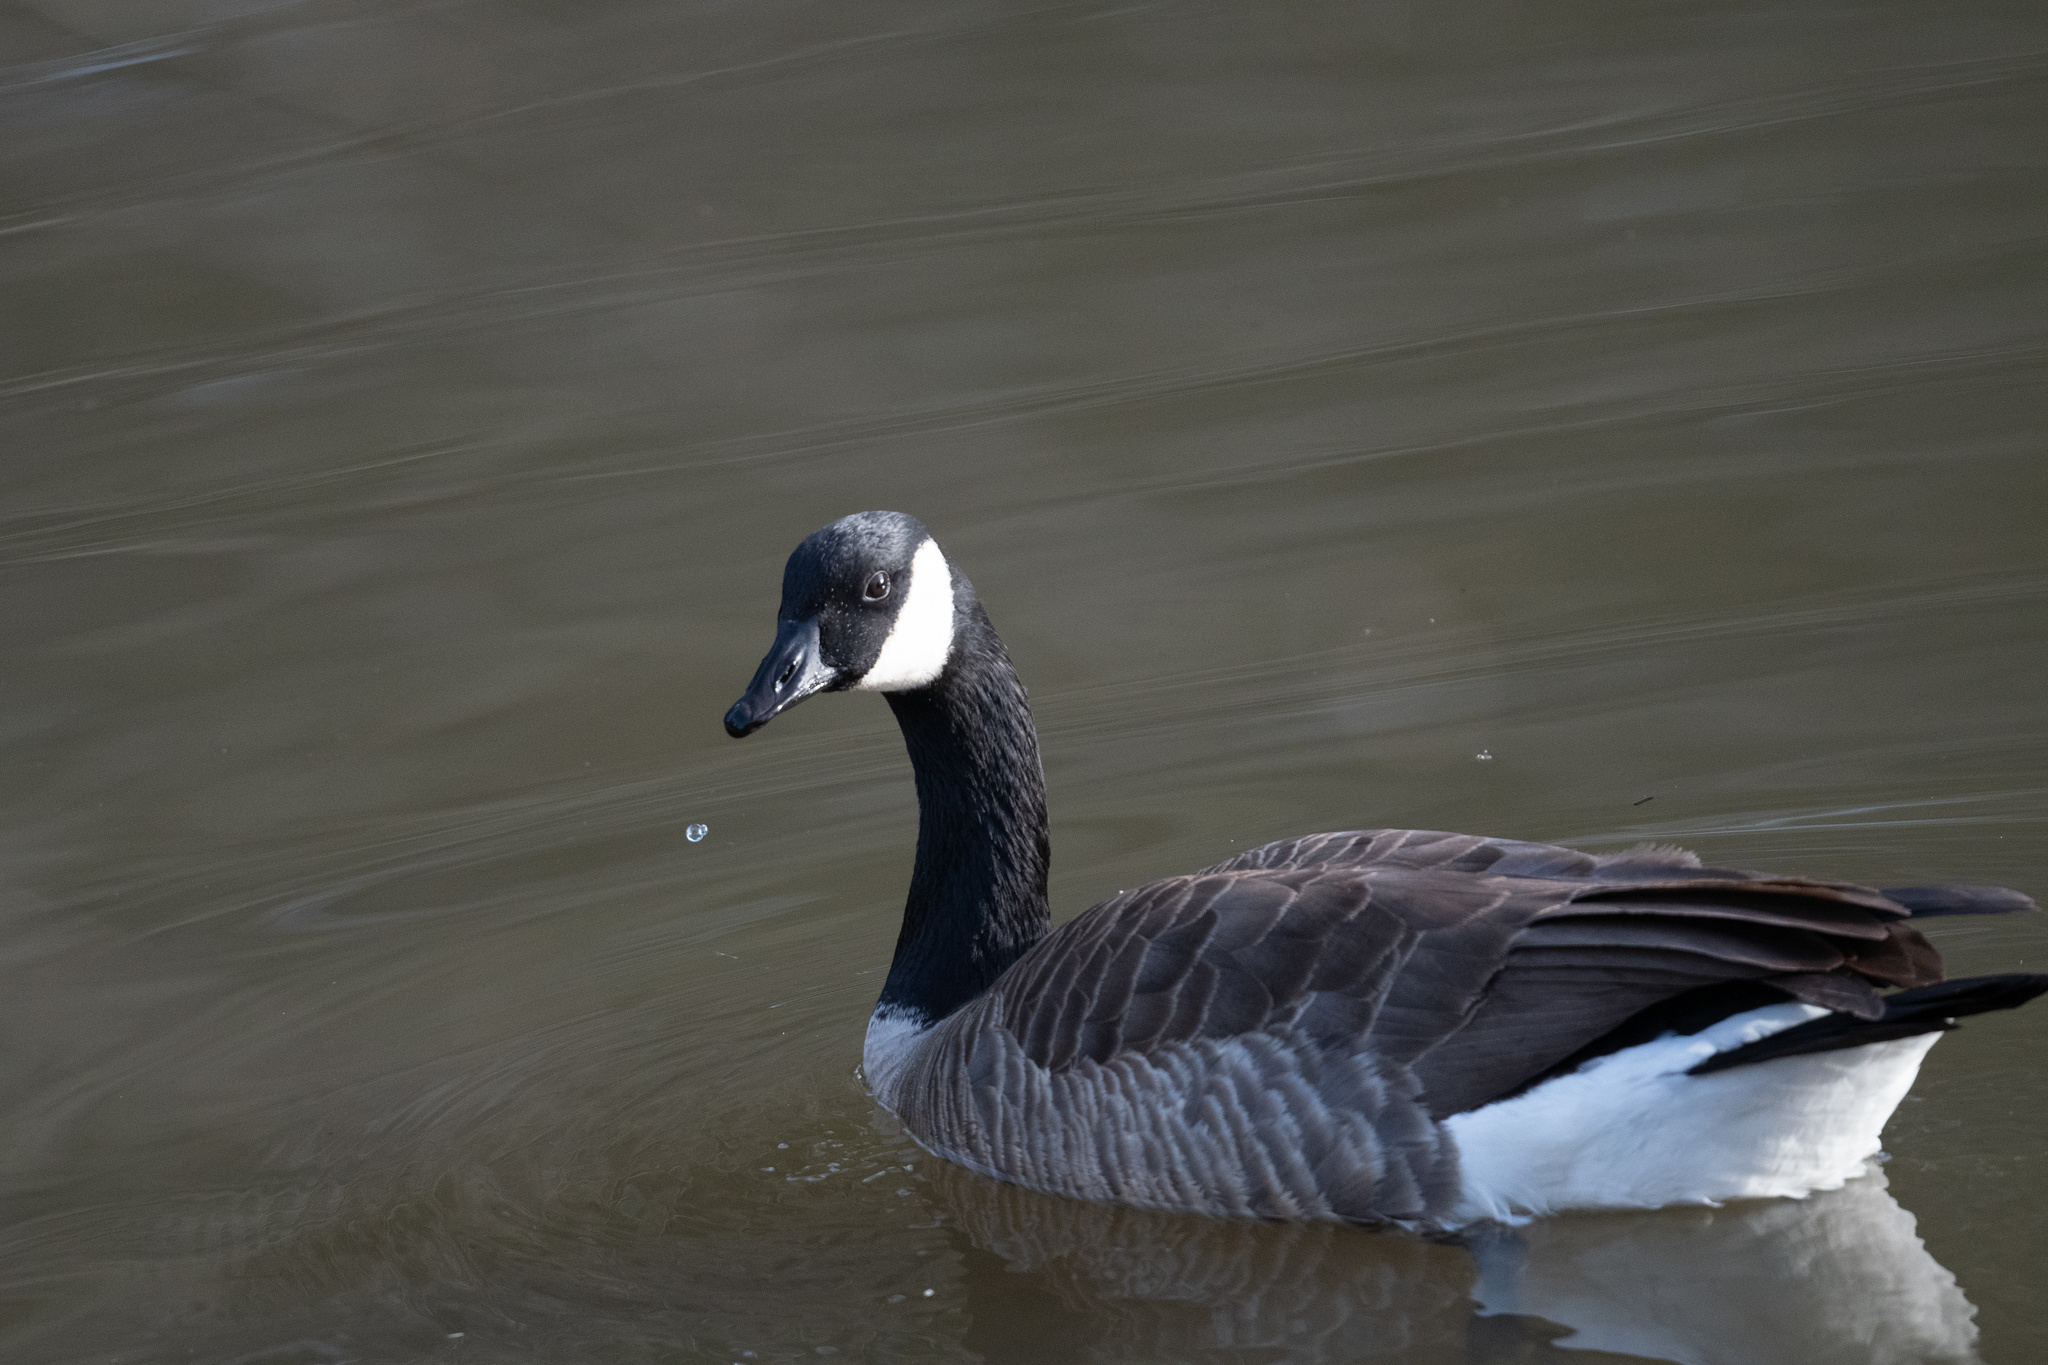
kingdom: Animalia
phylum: Chordata
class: Aves
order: Anseriformes
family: Anatidae
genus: Branta
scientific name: Branta canadensis
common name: Canada goose
